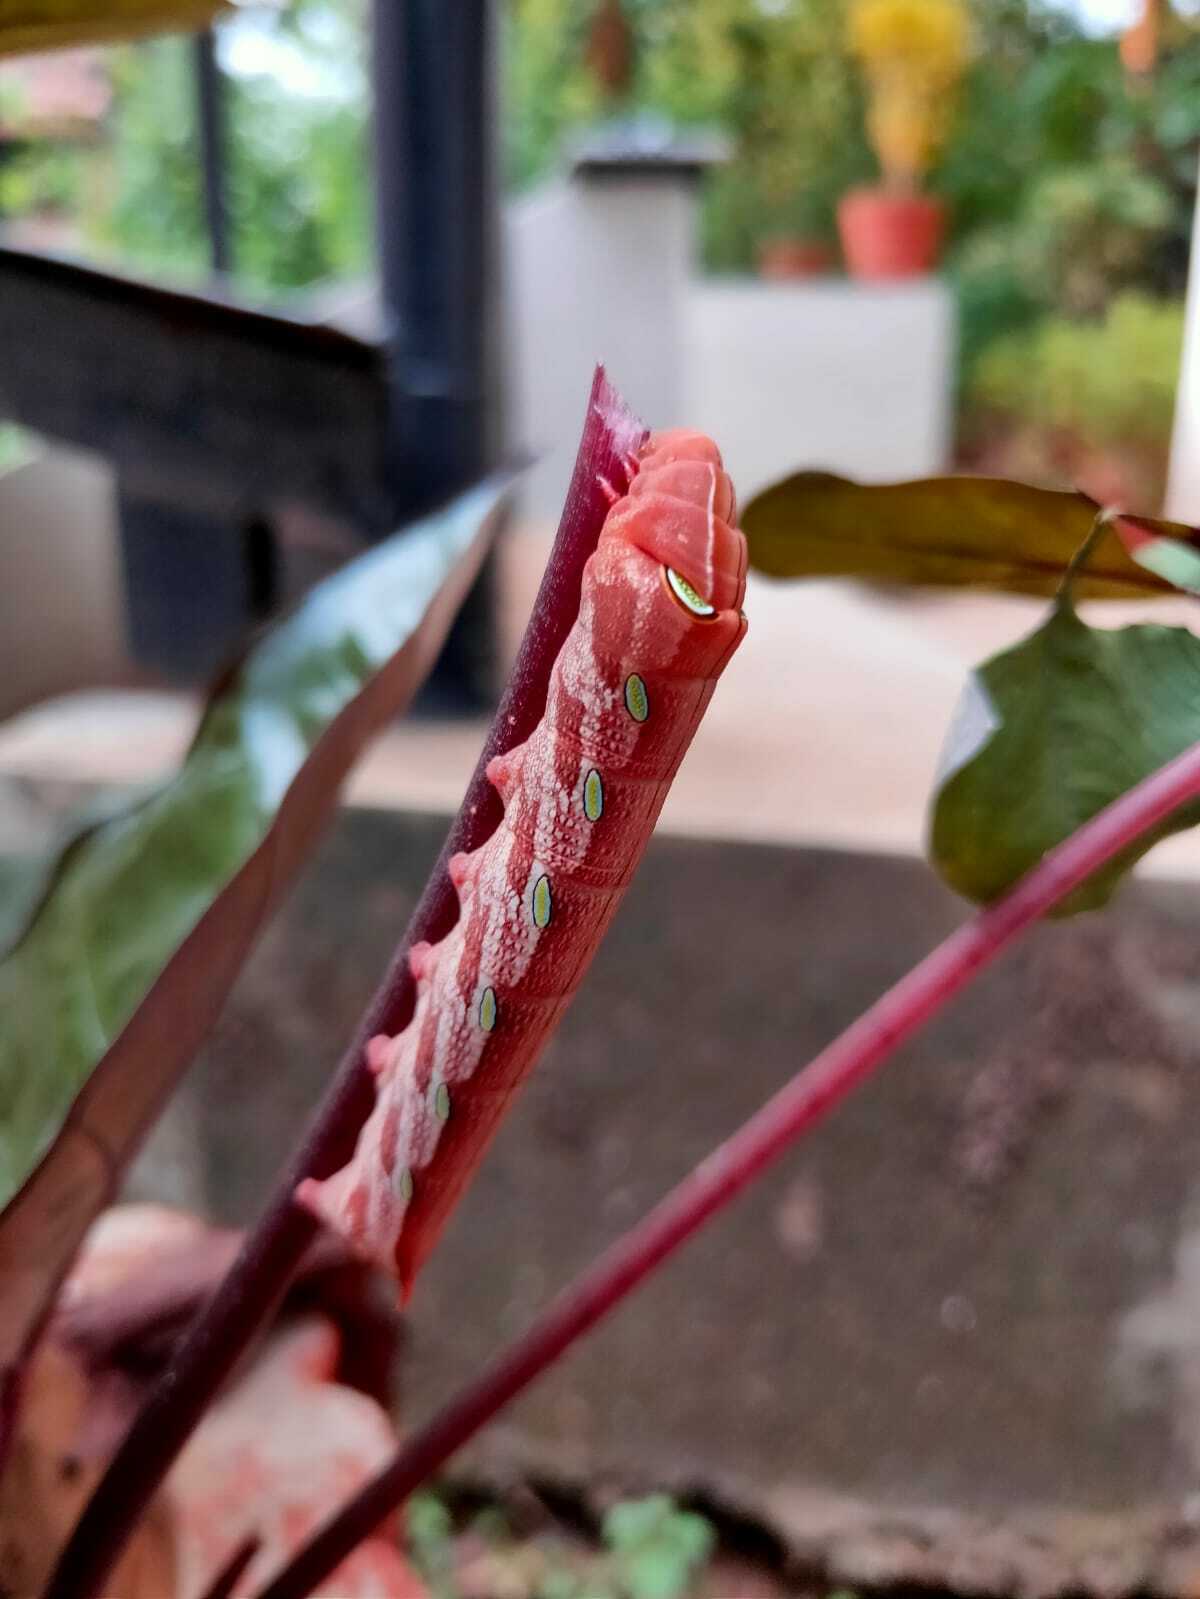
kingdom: Animalia
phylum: Arthropoda
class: Insecta
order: Lepidoptera
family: Sphingidae
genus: Pergesa
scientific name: Pergesa acteus
